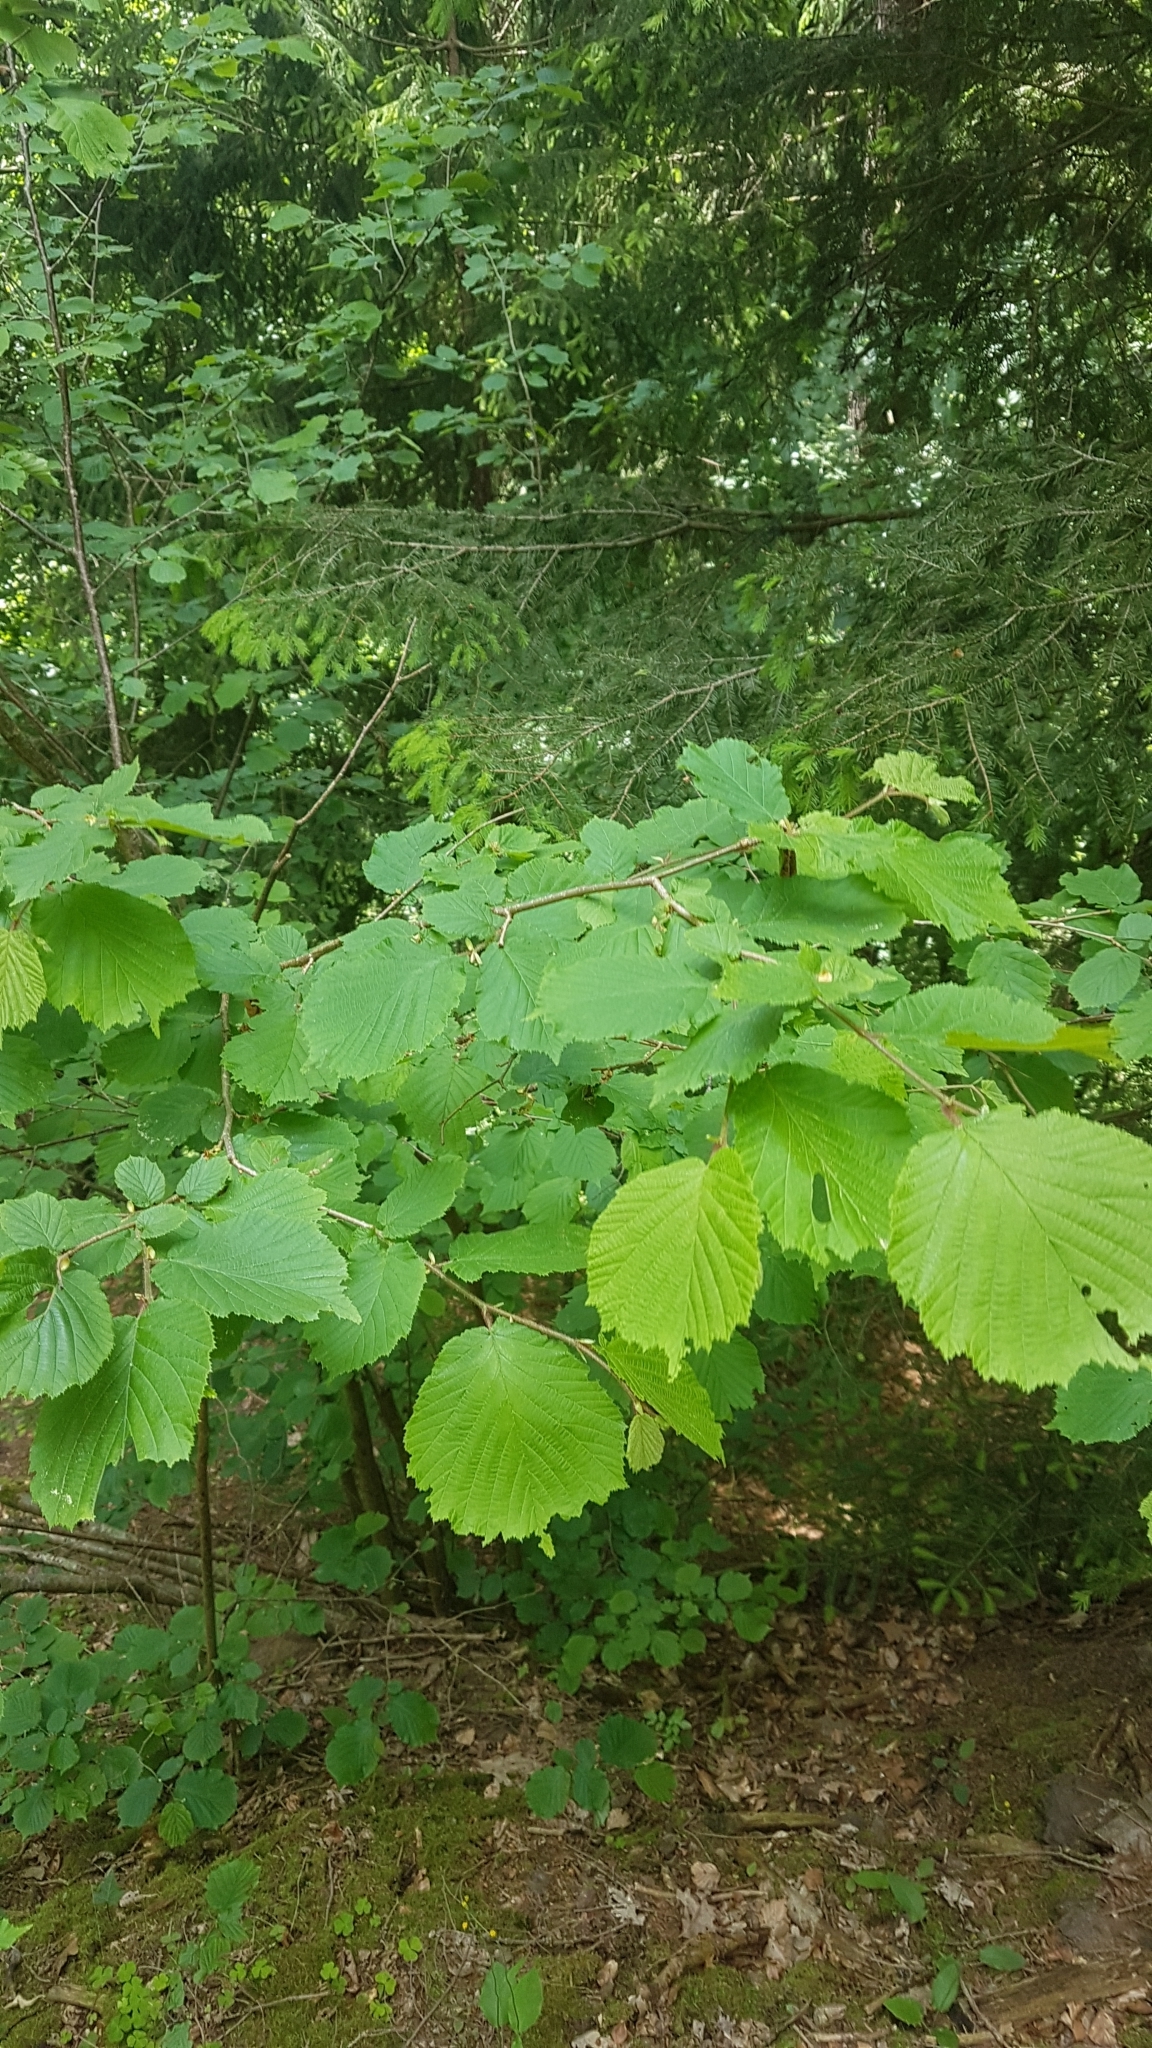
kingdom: Plantae
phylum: Tracheophyta
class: Magnoliopsida
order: Fagales
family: Betulaceae
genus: Corylus
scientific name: Corylus avellana
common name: European hazel
